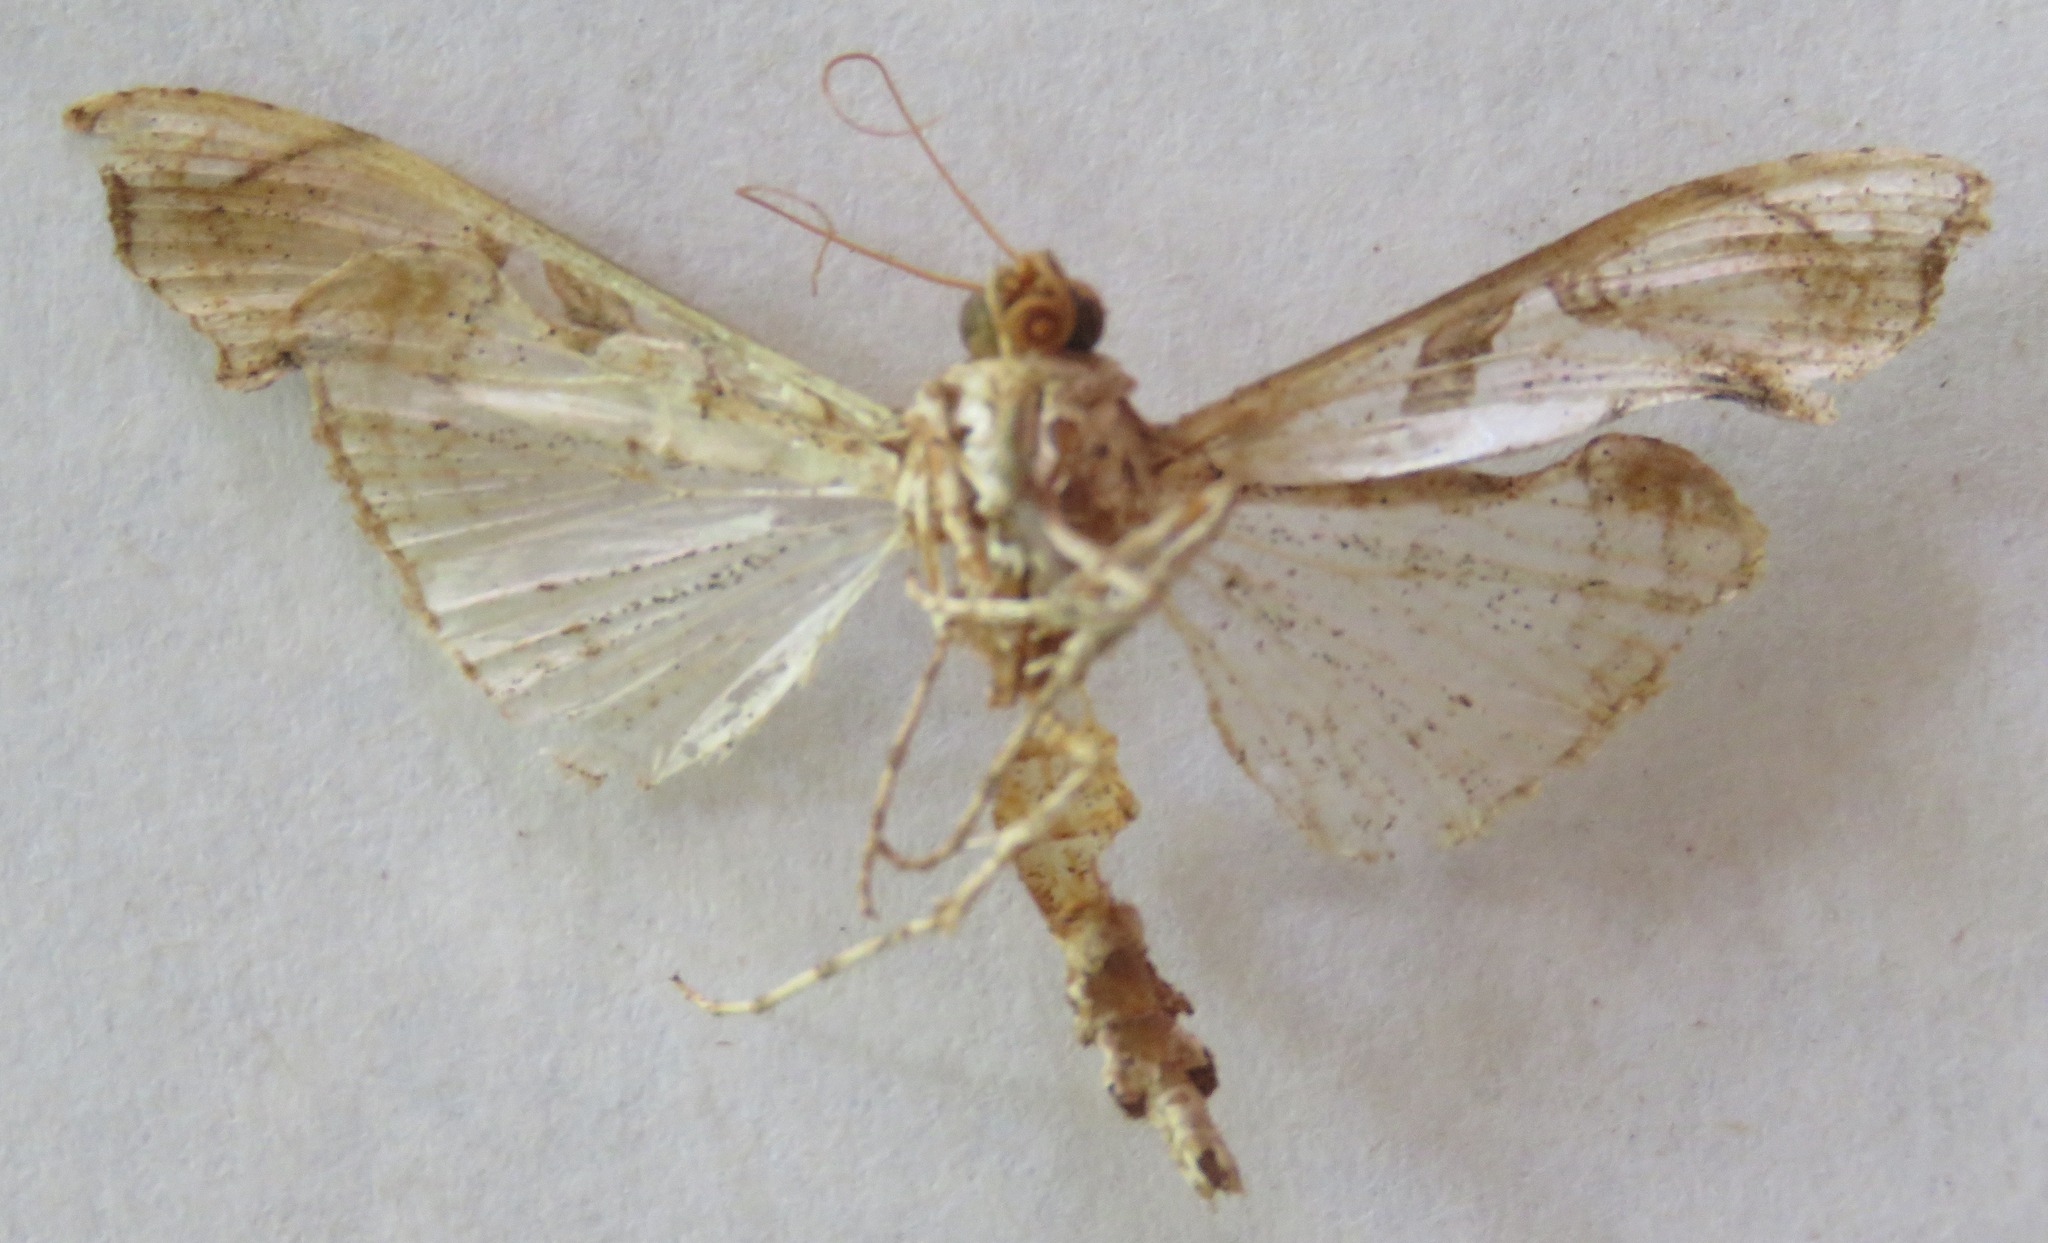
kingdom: Animalia
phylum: Arthropoda
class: Insecta
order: Lepidoptera
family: Crambidae
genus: Terastia
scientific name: Terastia meticulosalis
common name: Moth
